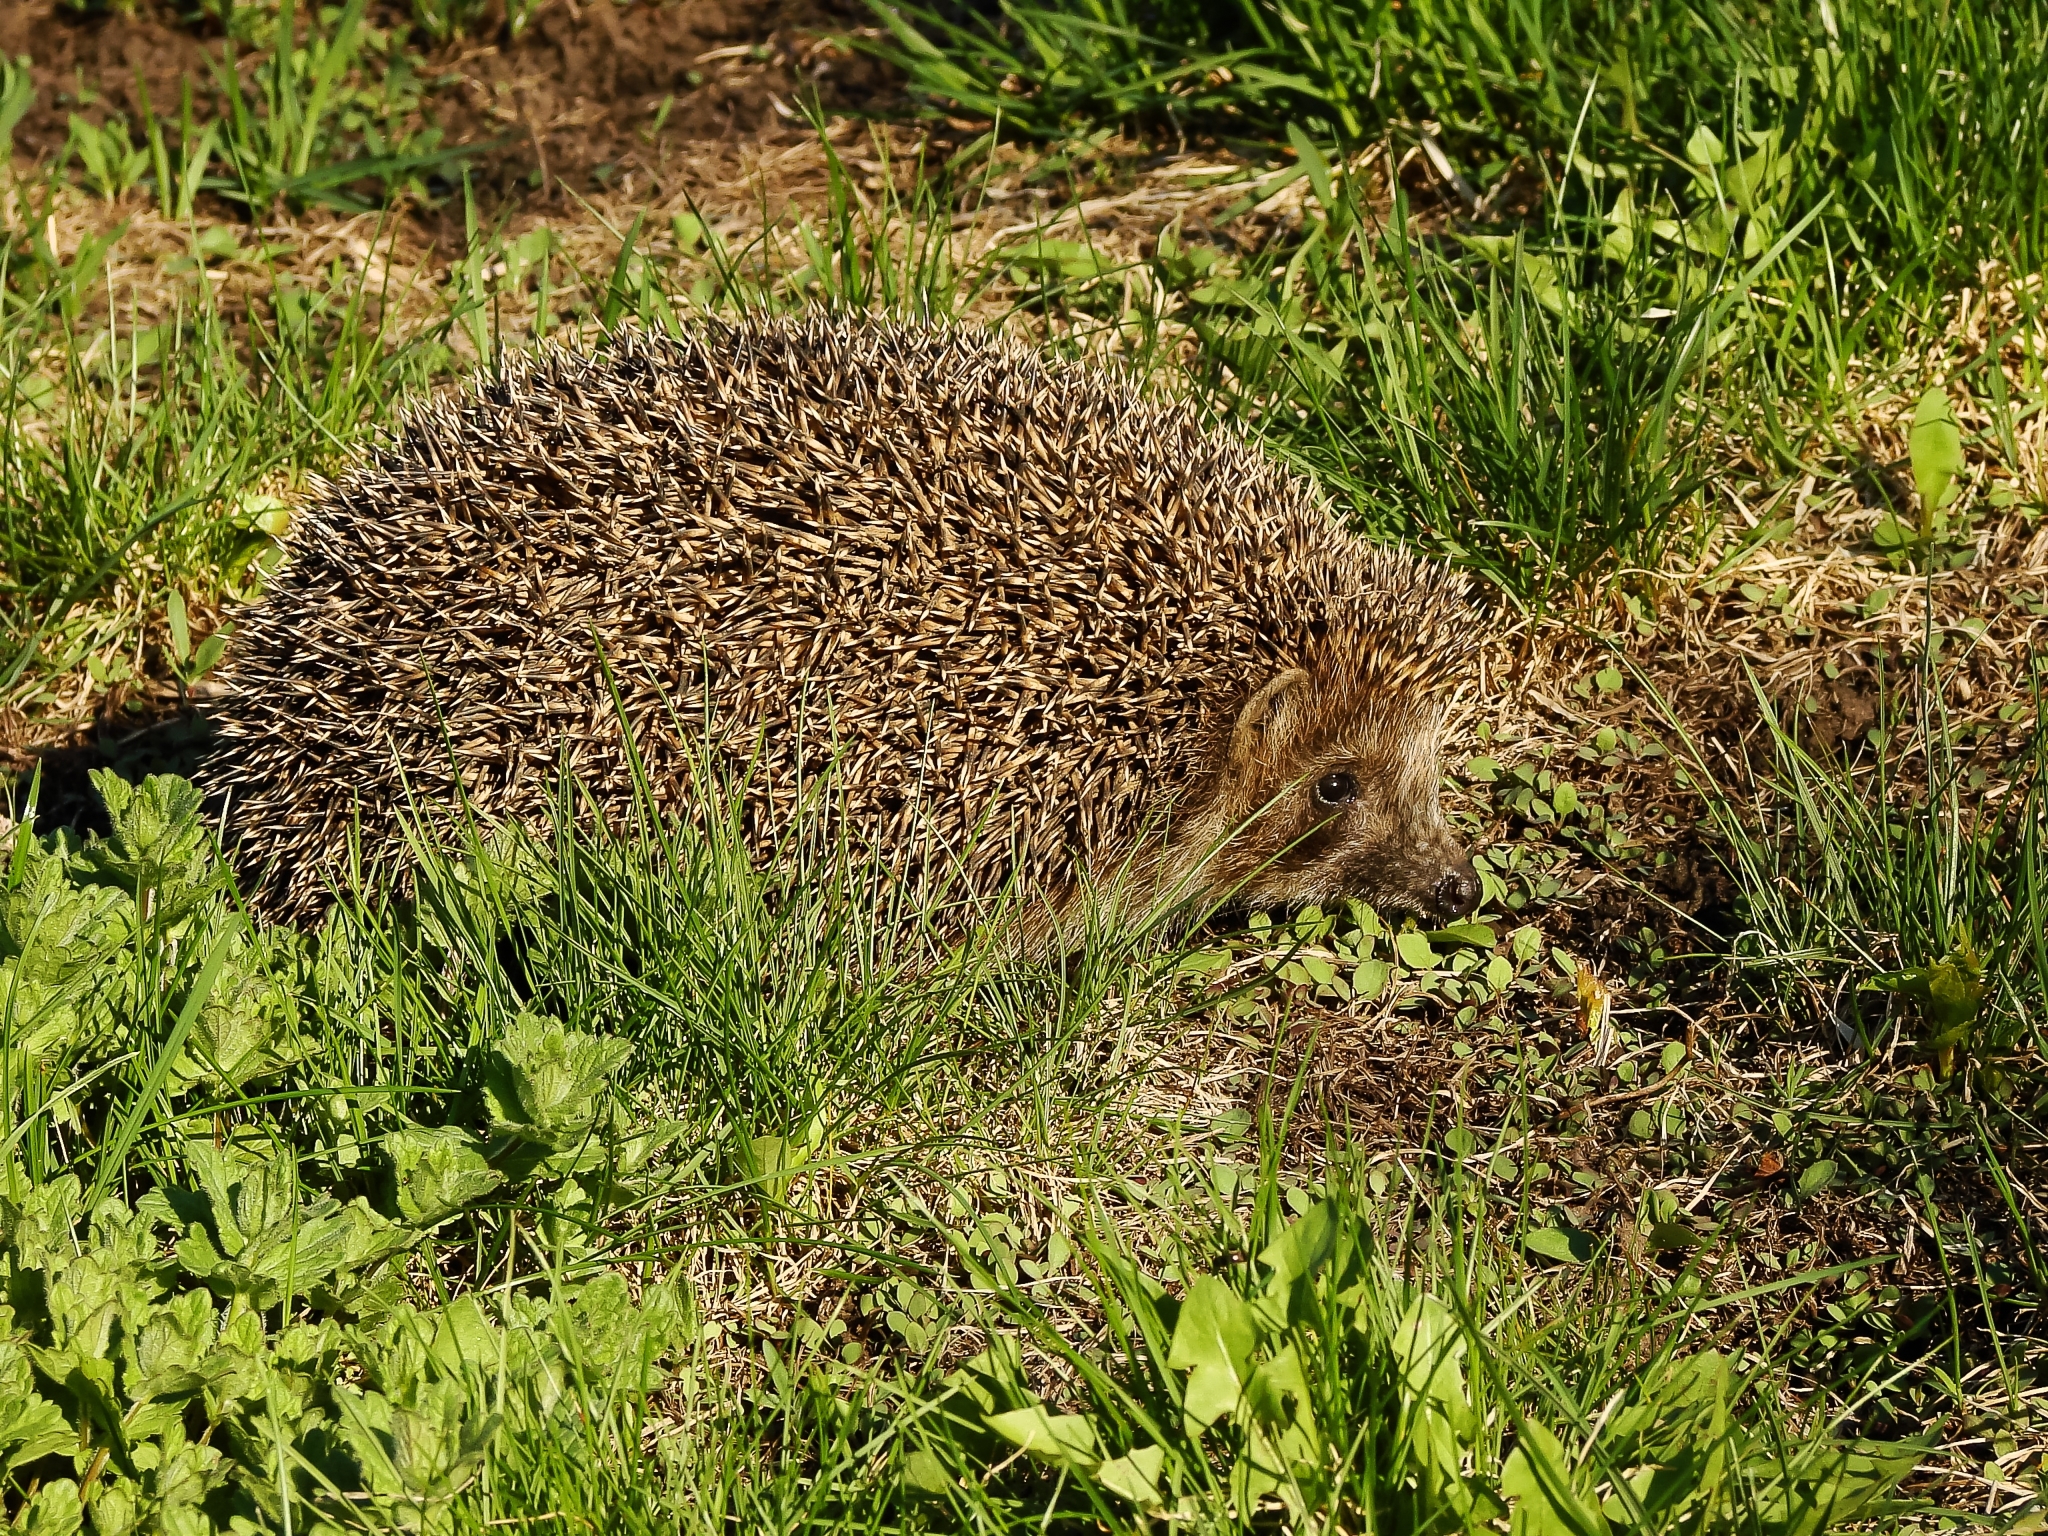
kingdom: Animalia
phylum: Chordata
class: Mammalia
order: Erinaceomorpha
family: Erinaceidae
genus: Erinaceus
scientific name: Erinaceus roumanicus
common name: Northern white-breasted hedgehog
